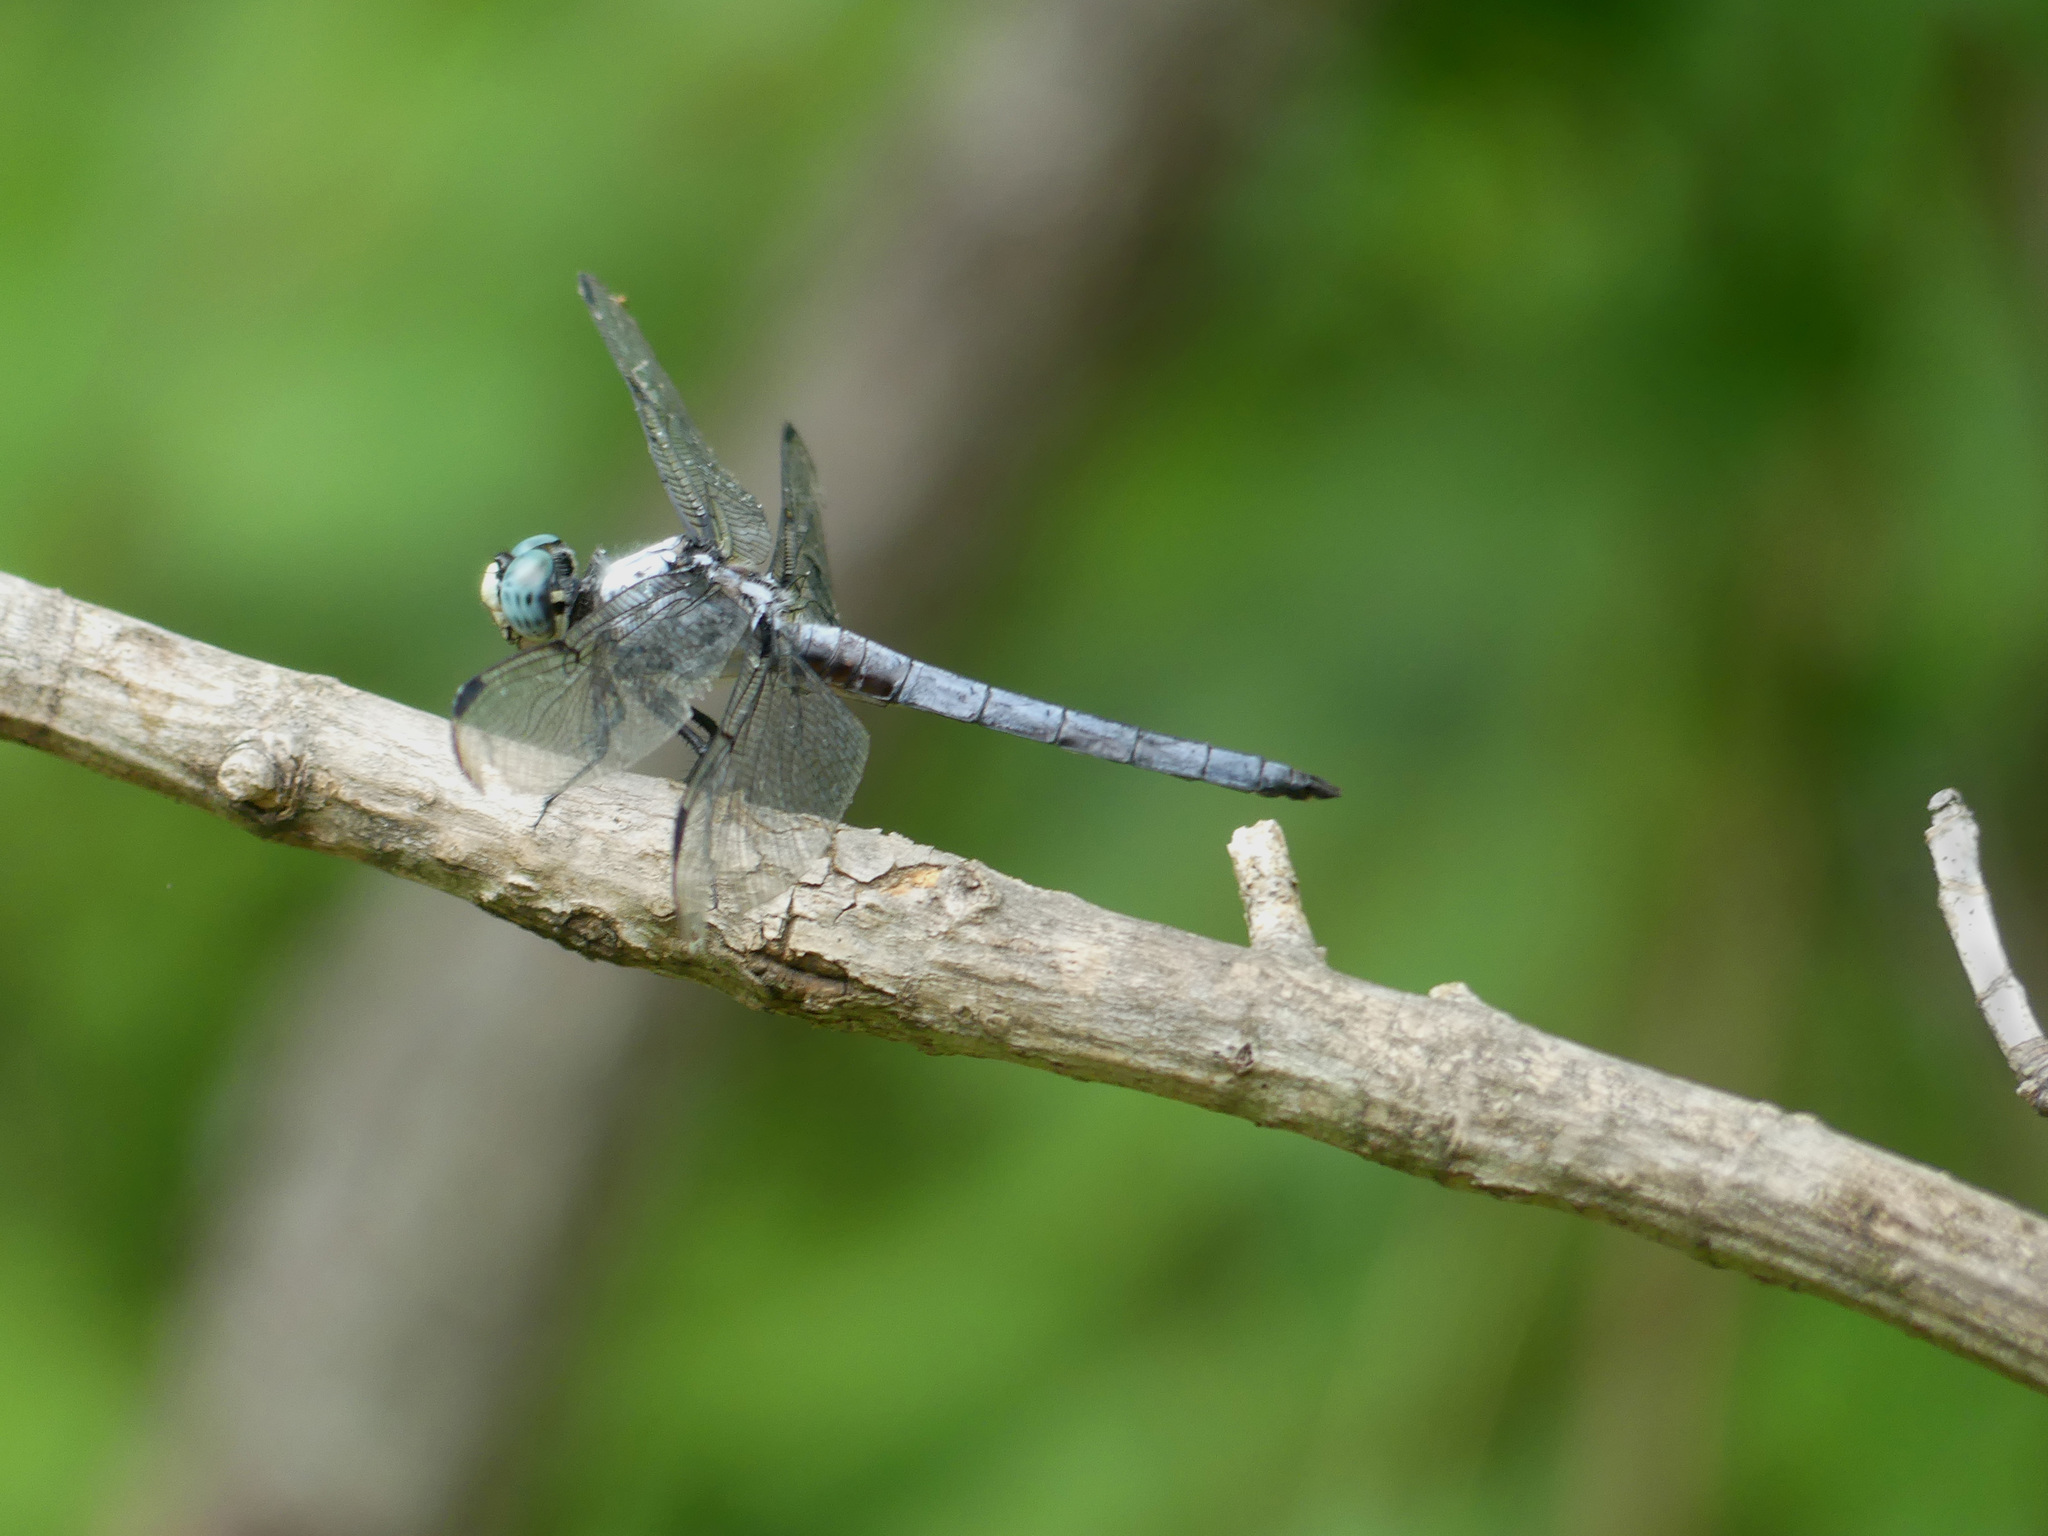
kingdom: Animalia
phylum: Arthropoda
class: Insecta
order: Odonata
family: Libellulidae
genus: Libellula
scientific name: Libellula vibrans
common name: Great blue skimmer
